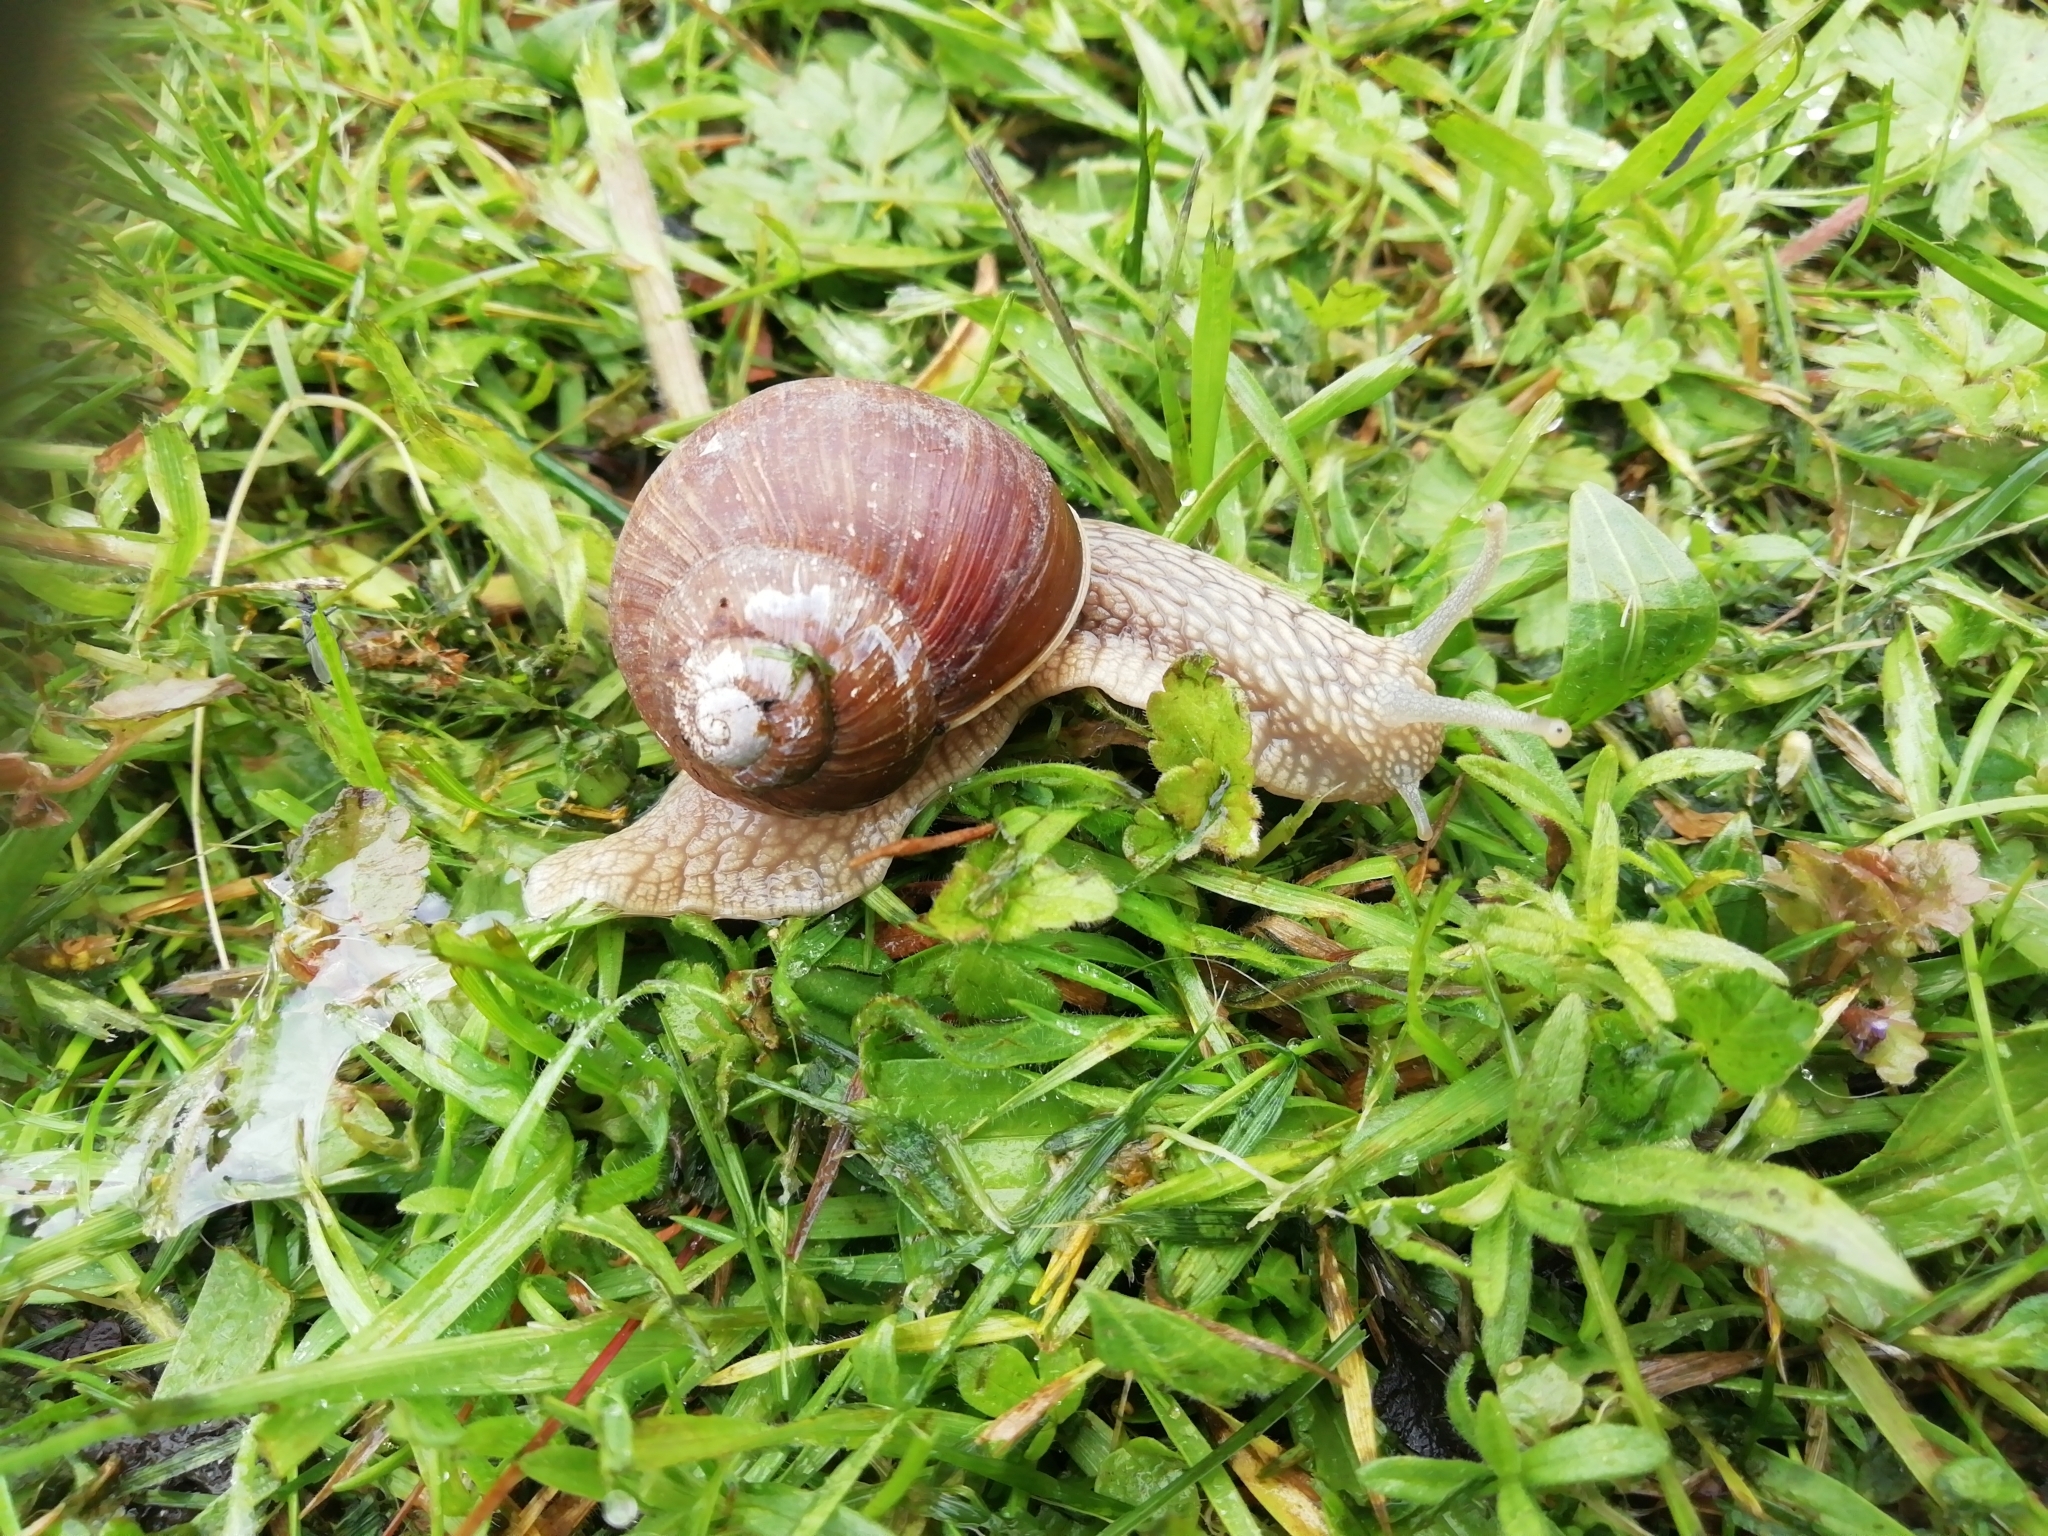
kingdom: Animalia
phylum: Mollusca
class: Gastropoda
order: Stylommatophora
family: Helicidae
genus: Helix
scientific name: Helix pomatia
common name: Roman snail
